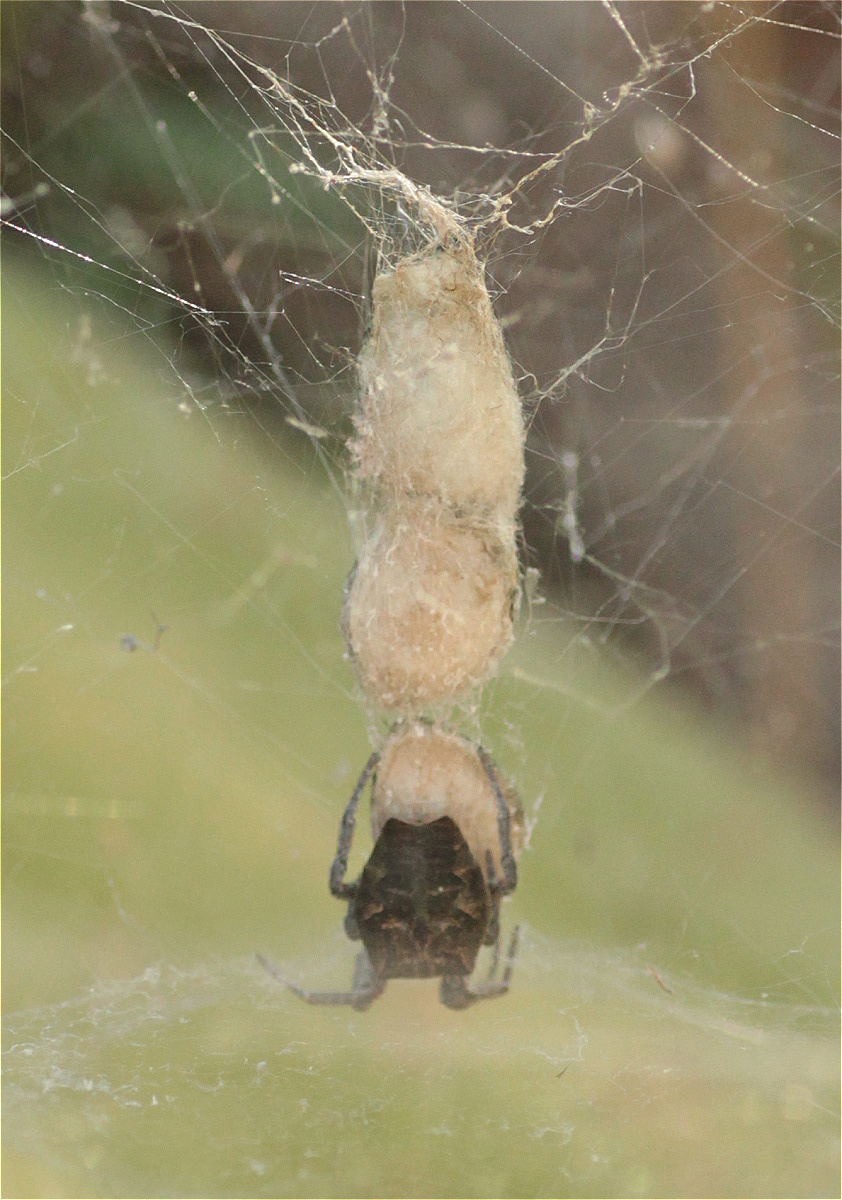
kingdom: Animalia
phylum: Arthropoda
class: Arachnida
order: Araneae
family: Araneidae
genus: Cyrtophora
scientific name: Cyrtophora citricola
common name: Orb weavers
